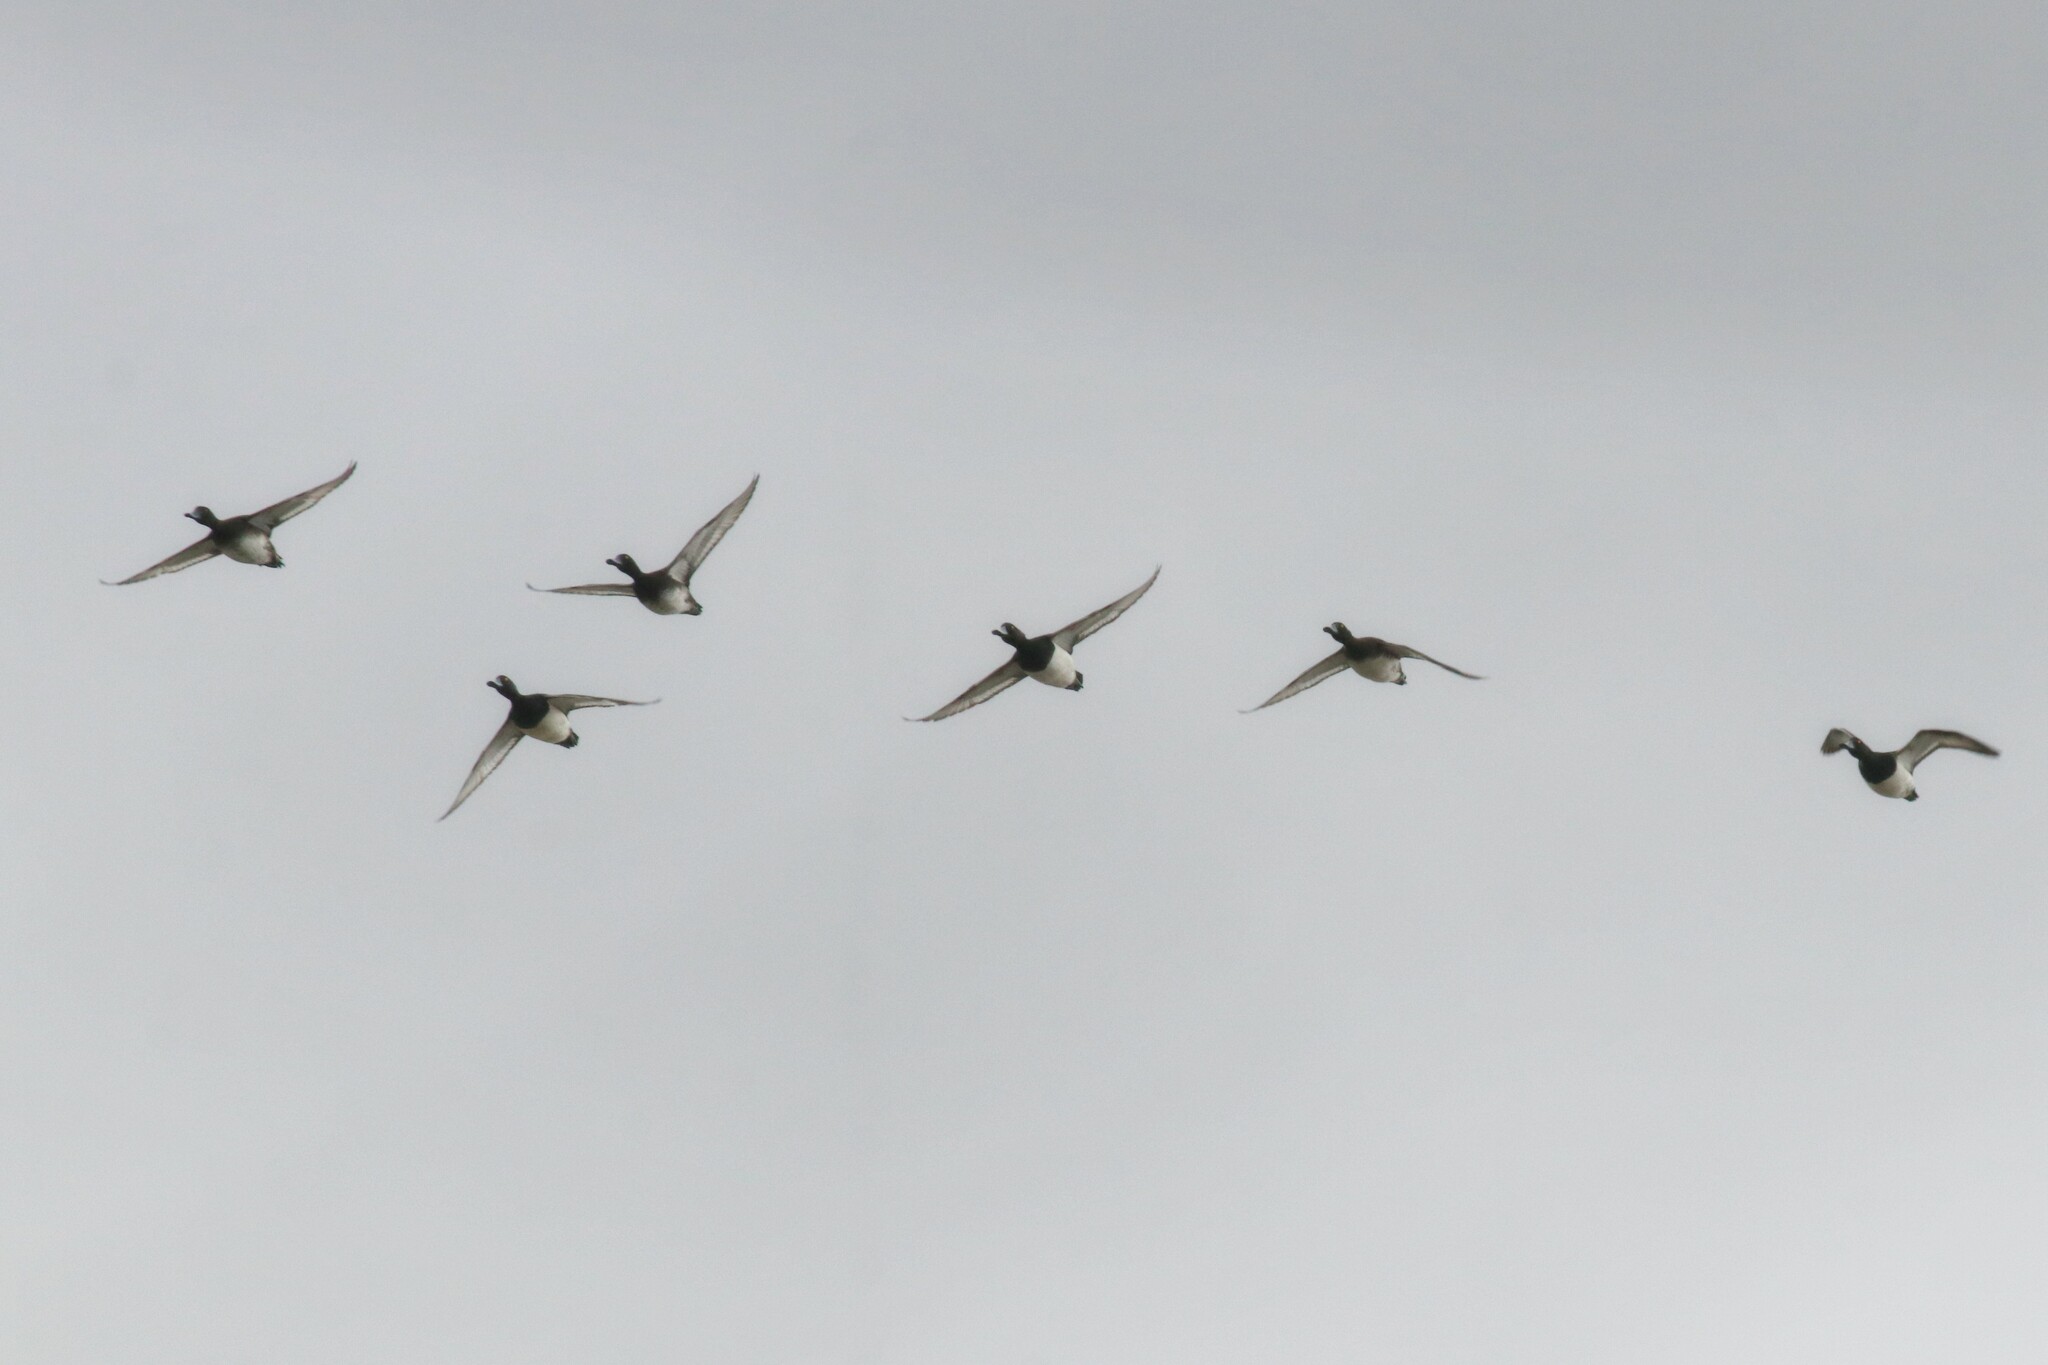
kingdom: Animalia
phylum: Chordata
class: Aves
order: Anseriformes
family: Anatidae
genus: Aythya
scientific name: Aythya fuligula
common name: Tufted duck
